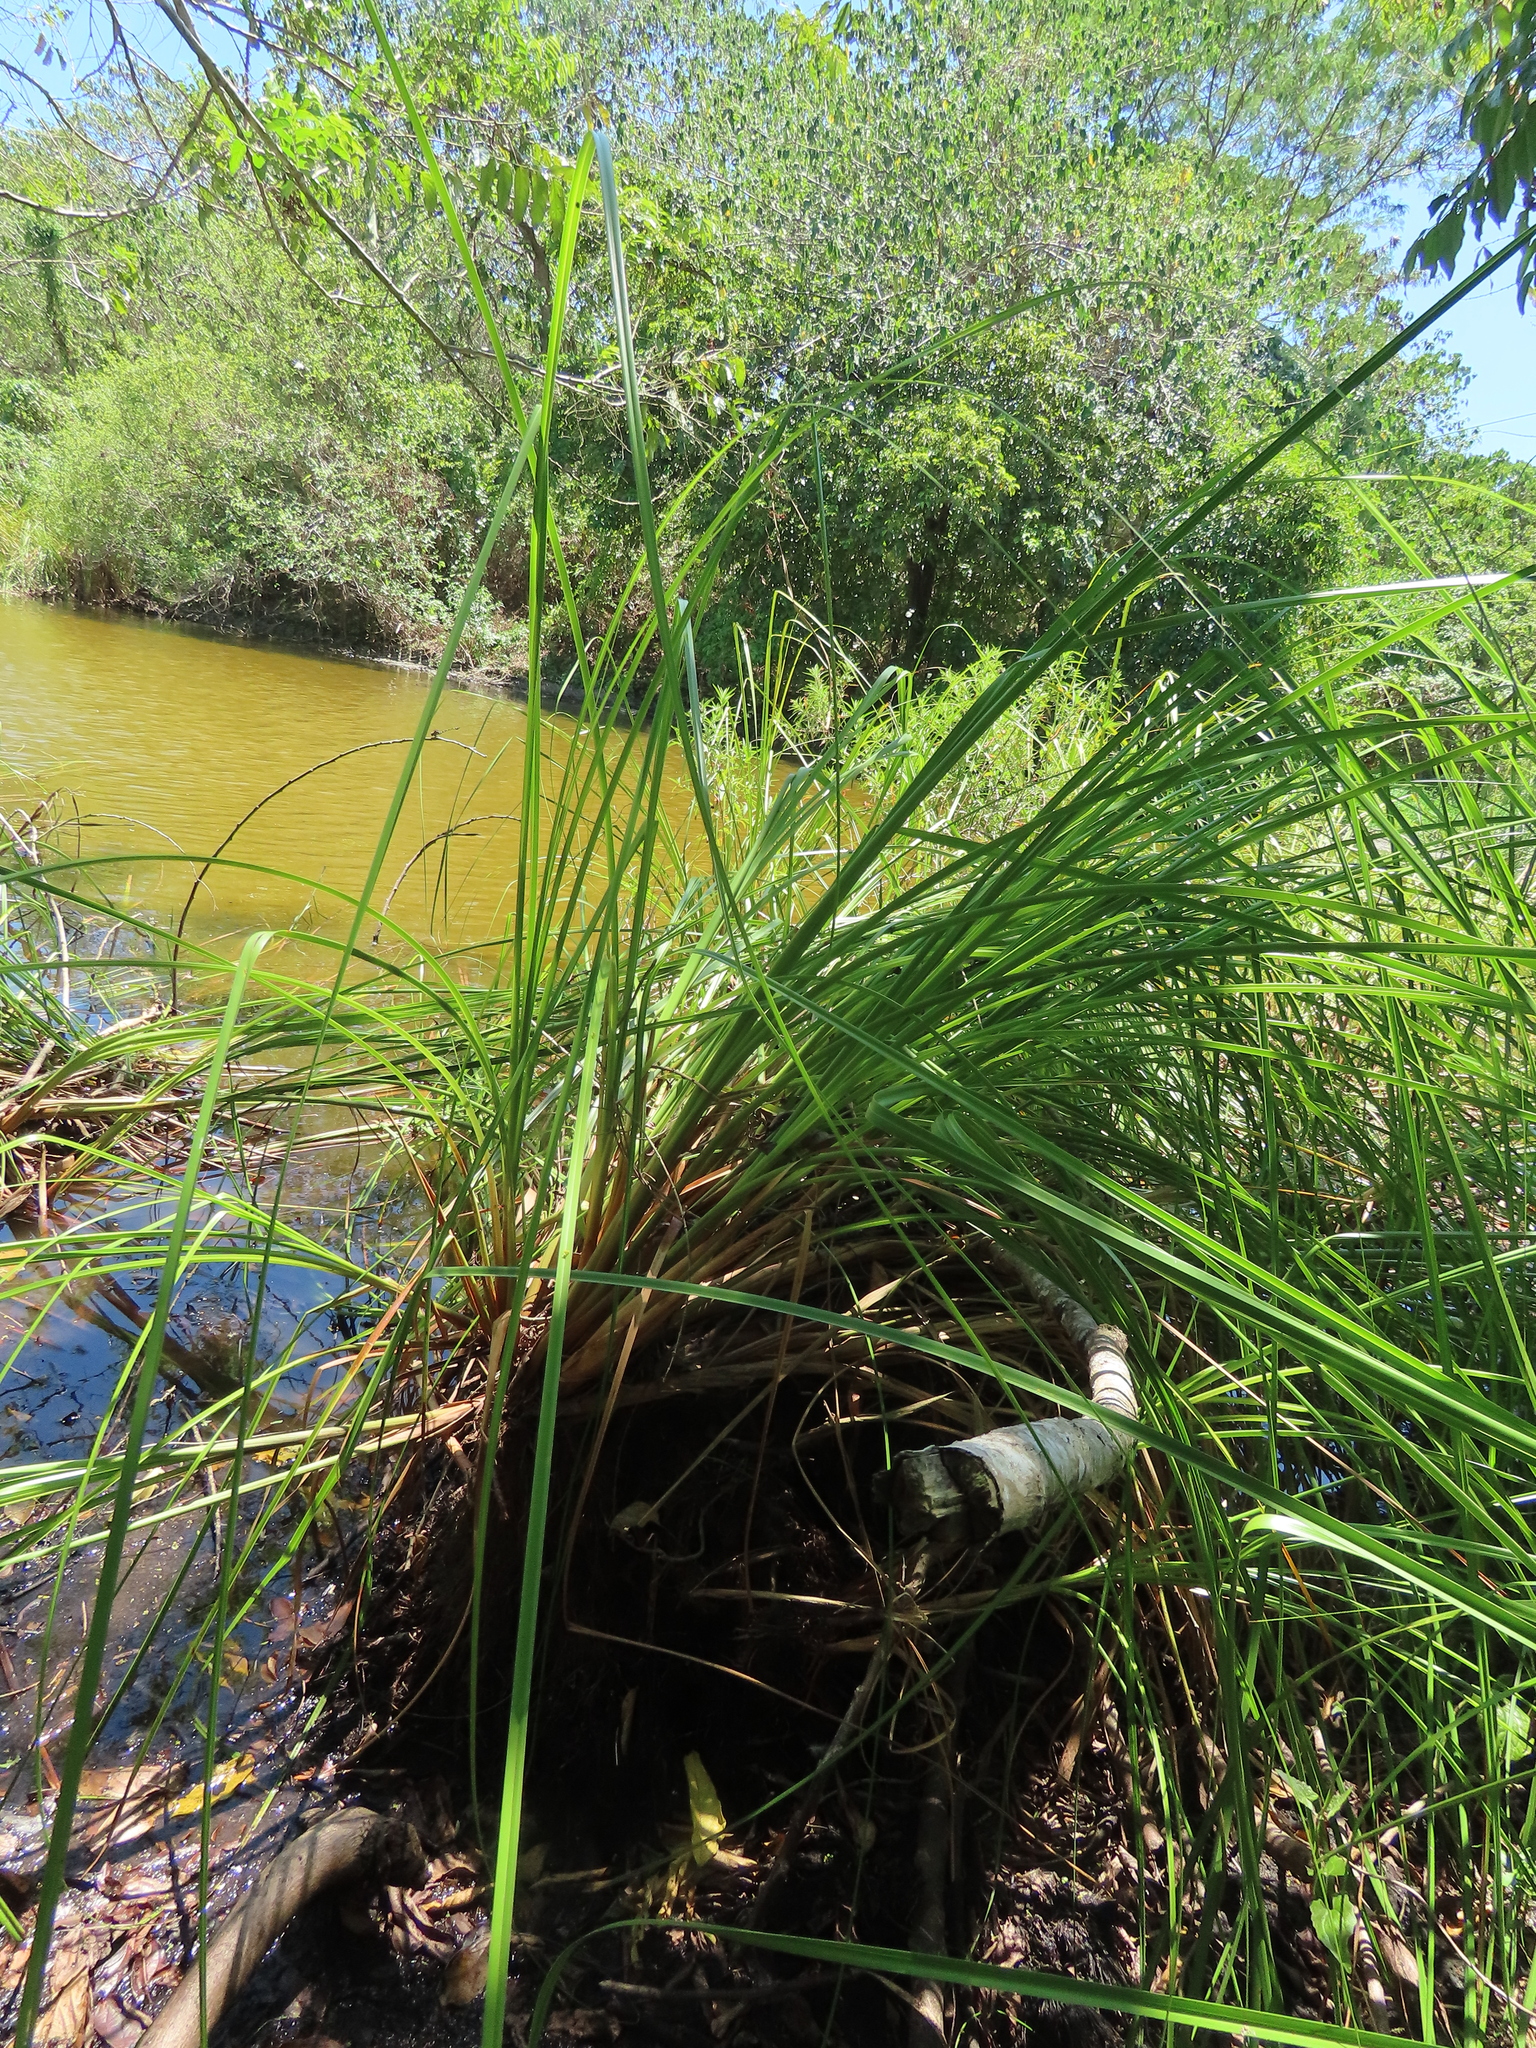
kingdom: Plantae
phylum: Tracheophyta
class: Liliopsida
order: Poales
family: Cyperaceae
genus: Cladium
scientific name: Cladium mariscus
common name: Great fen-sedge
